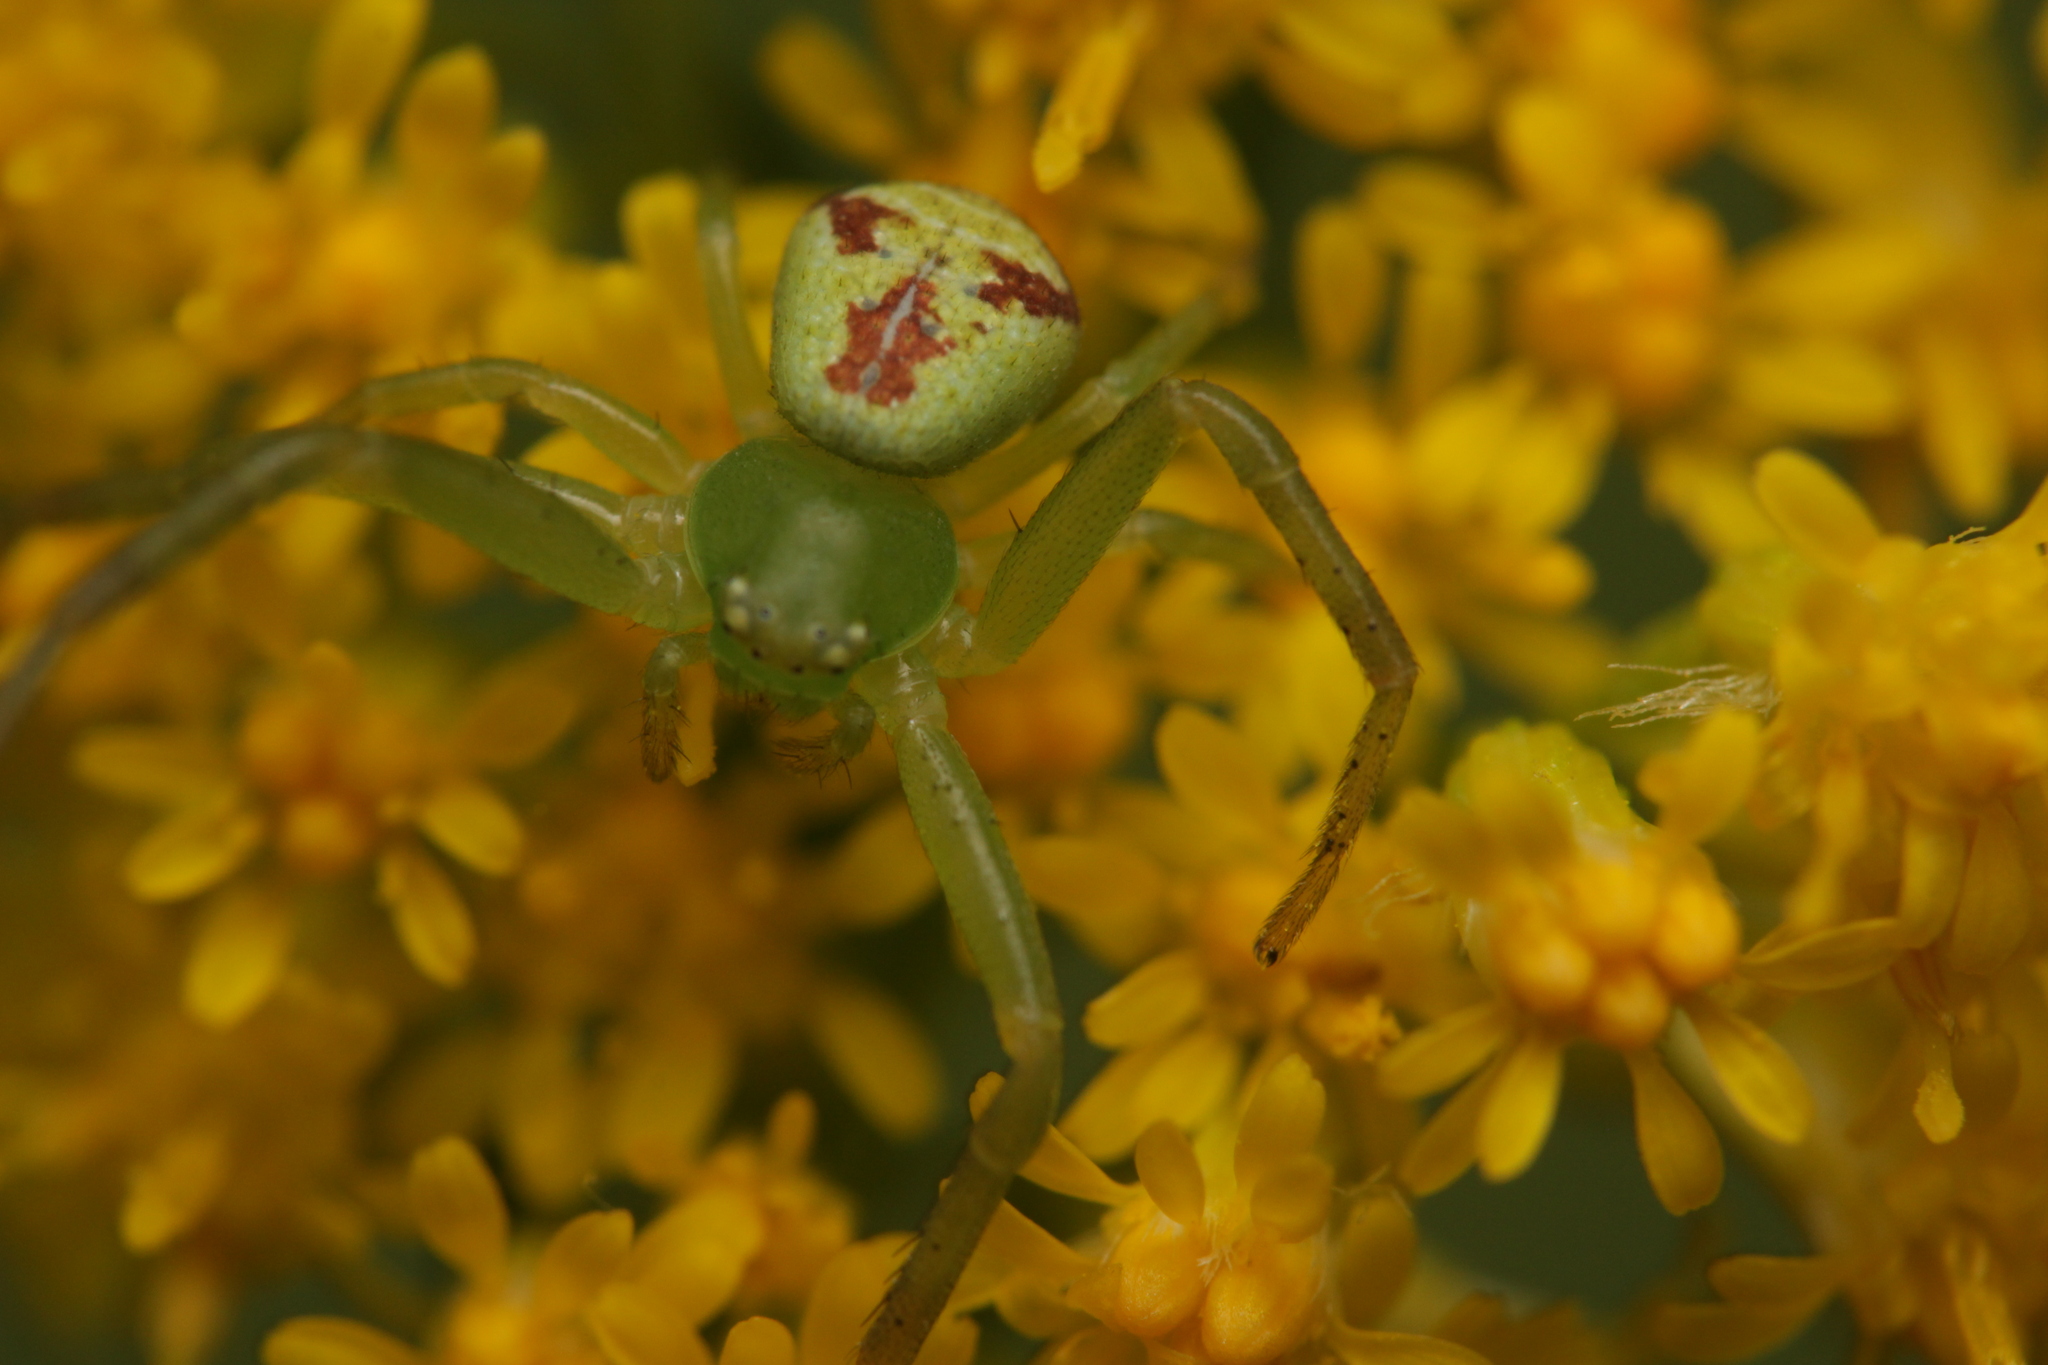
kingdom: Animalia
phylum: Arthropoda
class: Arachnida
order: Araneae
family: Thomisidae
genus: Ebrechtella
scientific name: Ebrechtella tricuspidata
